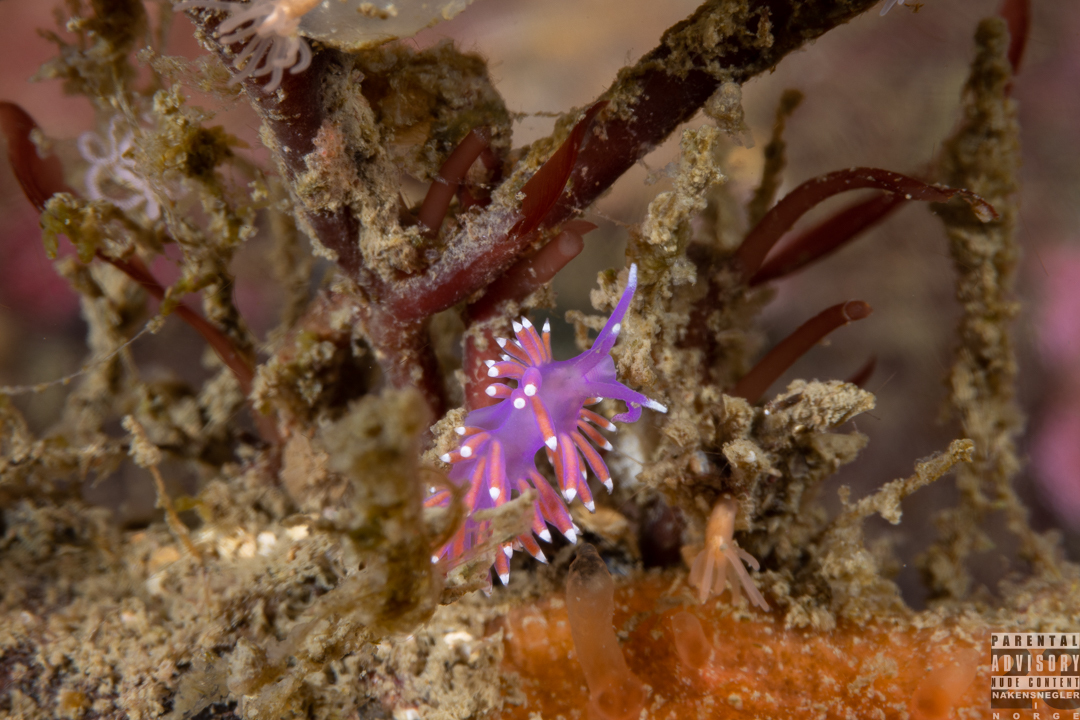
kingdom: Animalia
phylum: Mollusca
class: Gastropoda
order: Nudibranchia
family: Flabellinidae
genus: Edmundsella
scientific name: Edmundsella pedata
